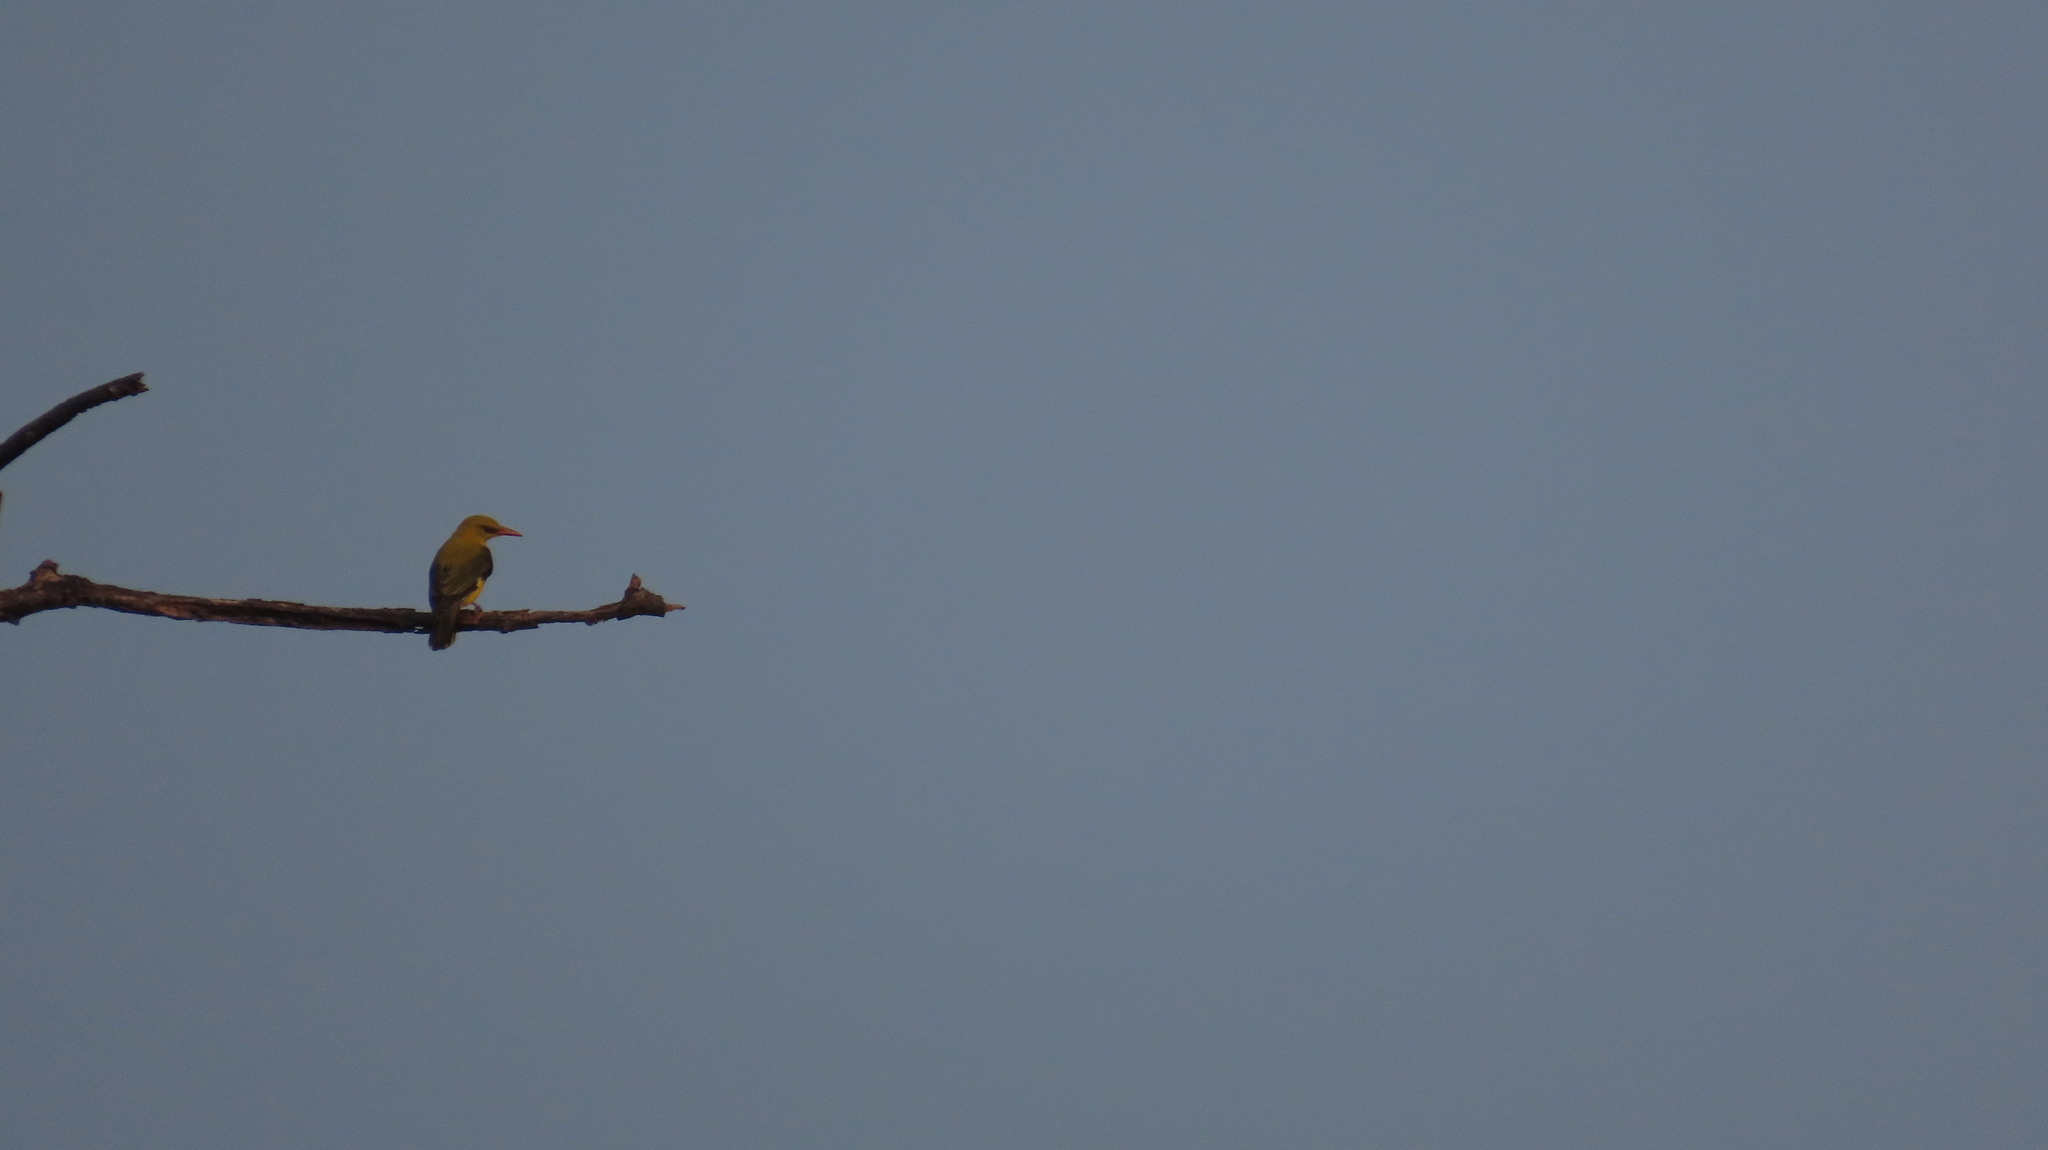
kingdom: Animalia
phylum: Chordata
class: Aves
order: Passeriformes
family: Oriolidae
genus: Oriolus
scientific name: Oriolus kundoo
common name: Indian golden oriole
